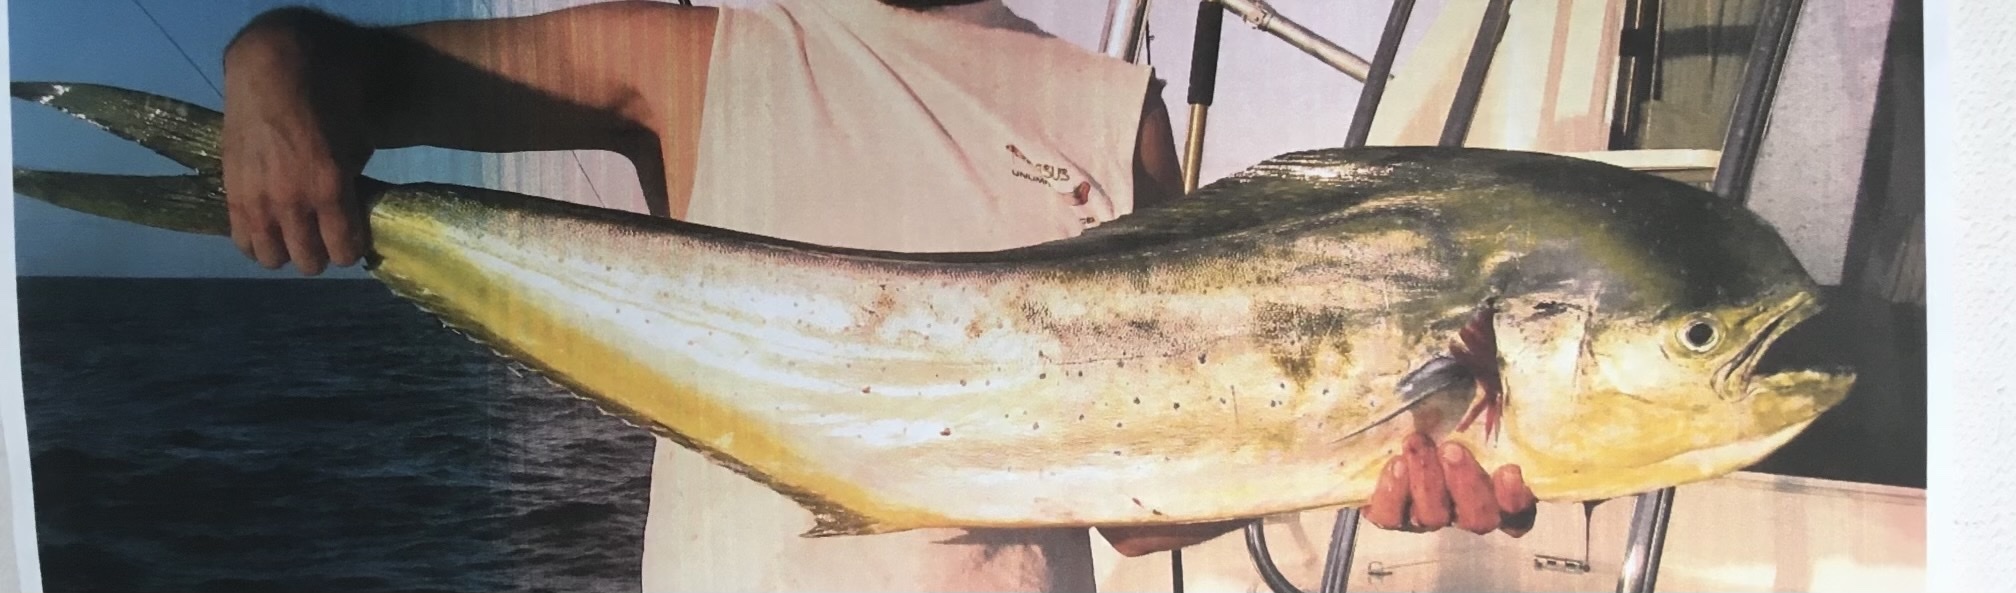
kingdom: Animalia
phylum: Chordata
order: Perciformes
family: Coryphaenidae
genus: Coryphaena
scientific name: Coryphaena hippurus
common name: Dolphin
